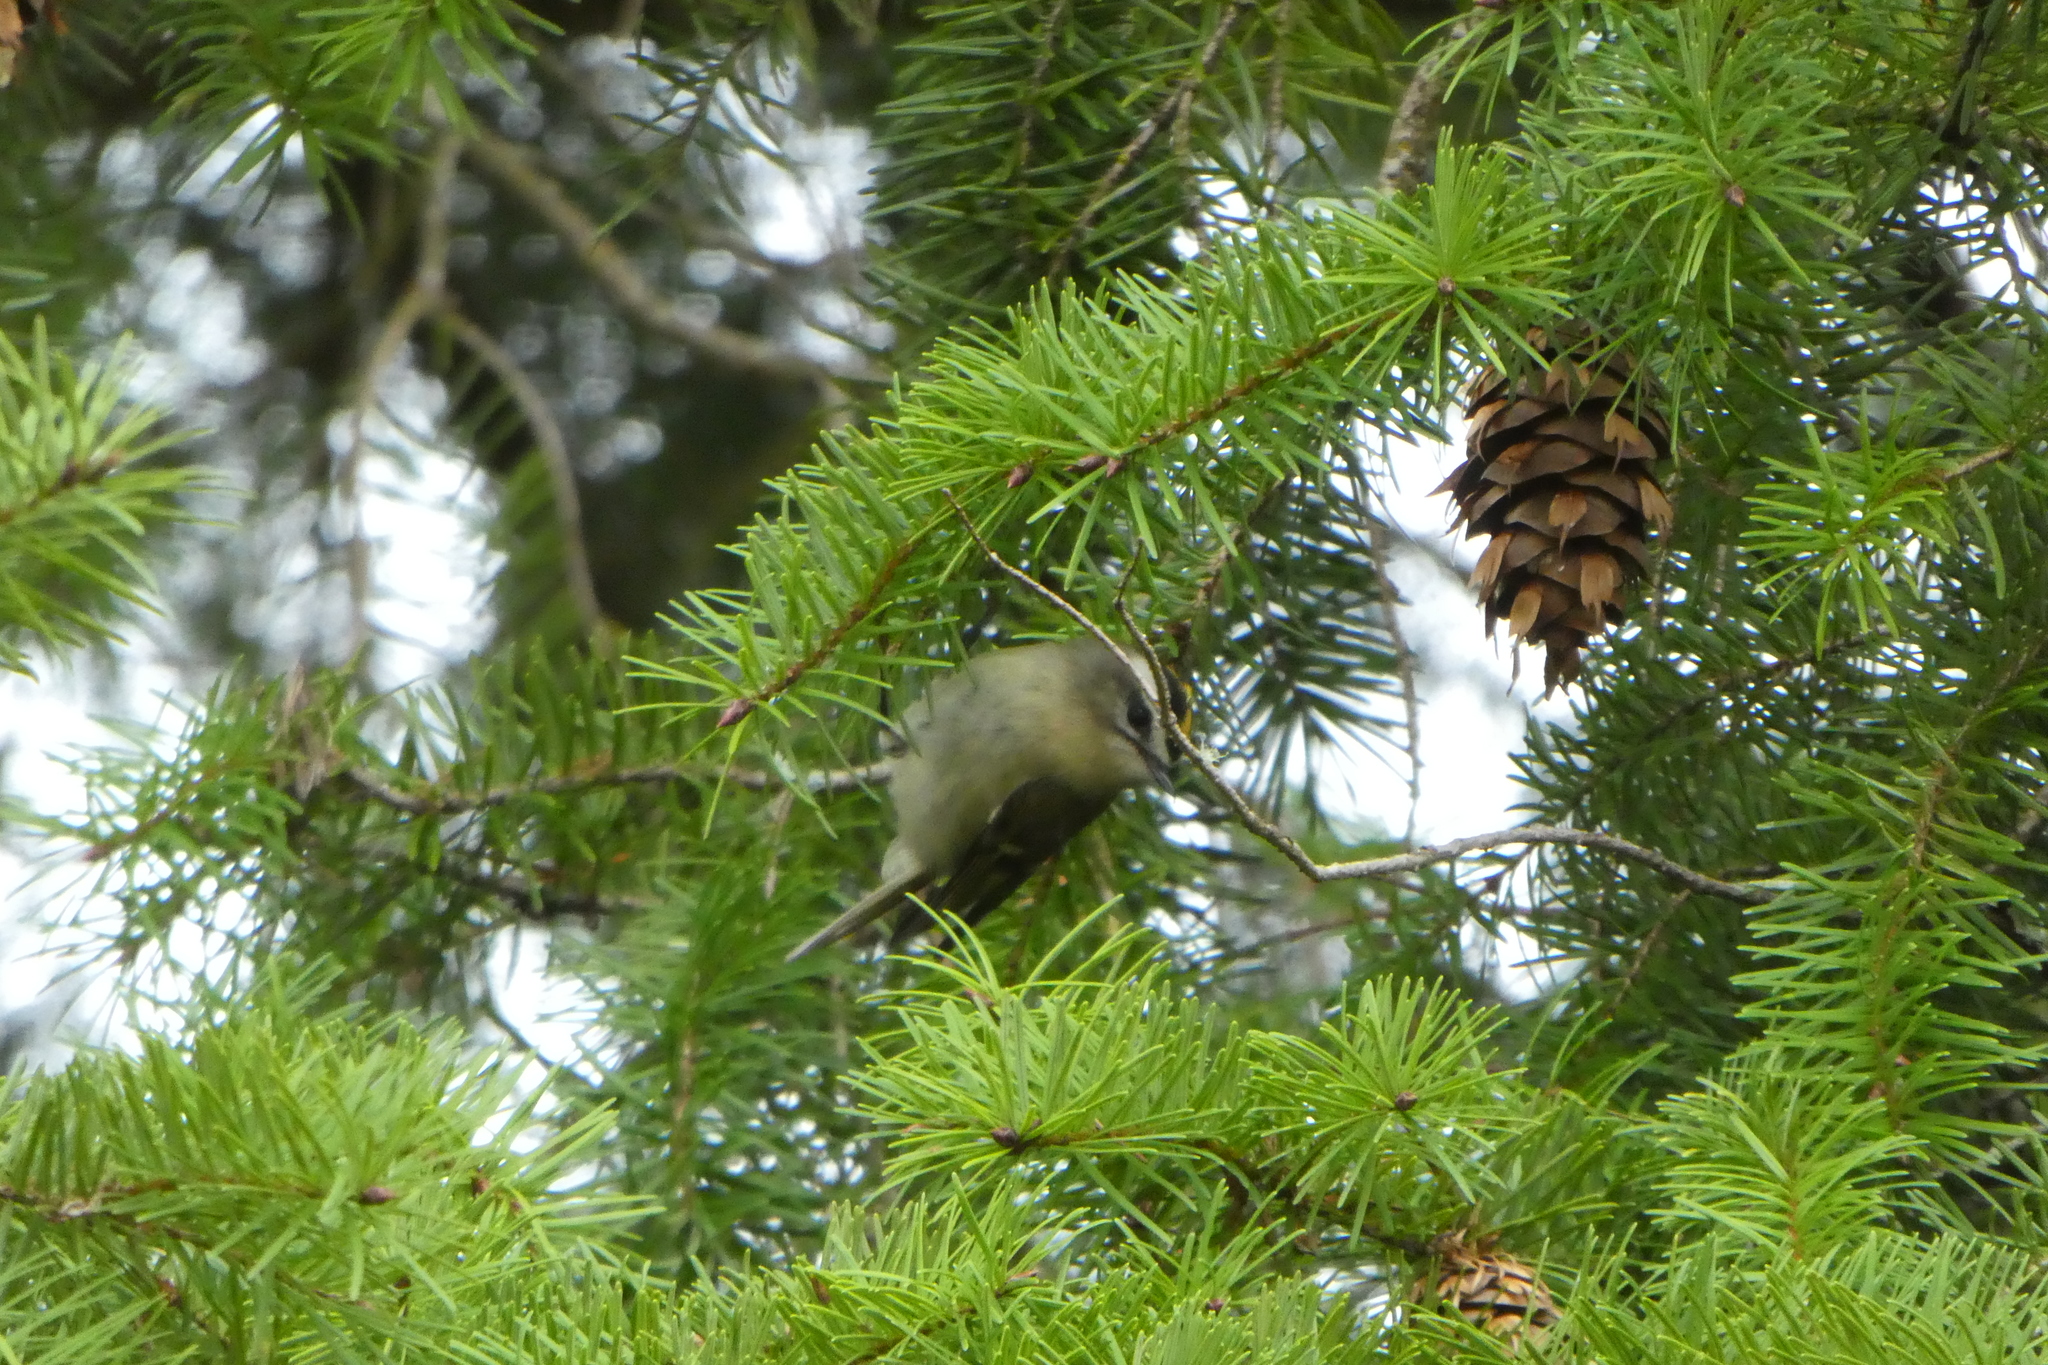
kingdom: Animalia
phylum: Chordata
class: Aves
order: Passeriformes
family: Regulidae
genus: Regulus
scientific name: Regulus satrapa
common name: Golden-crowned kinglet
